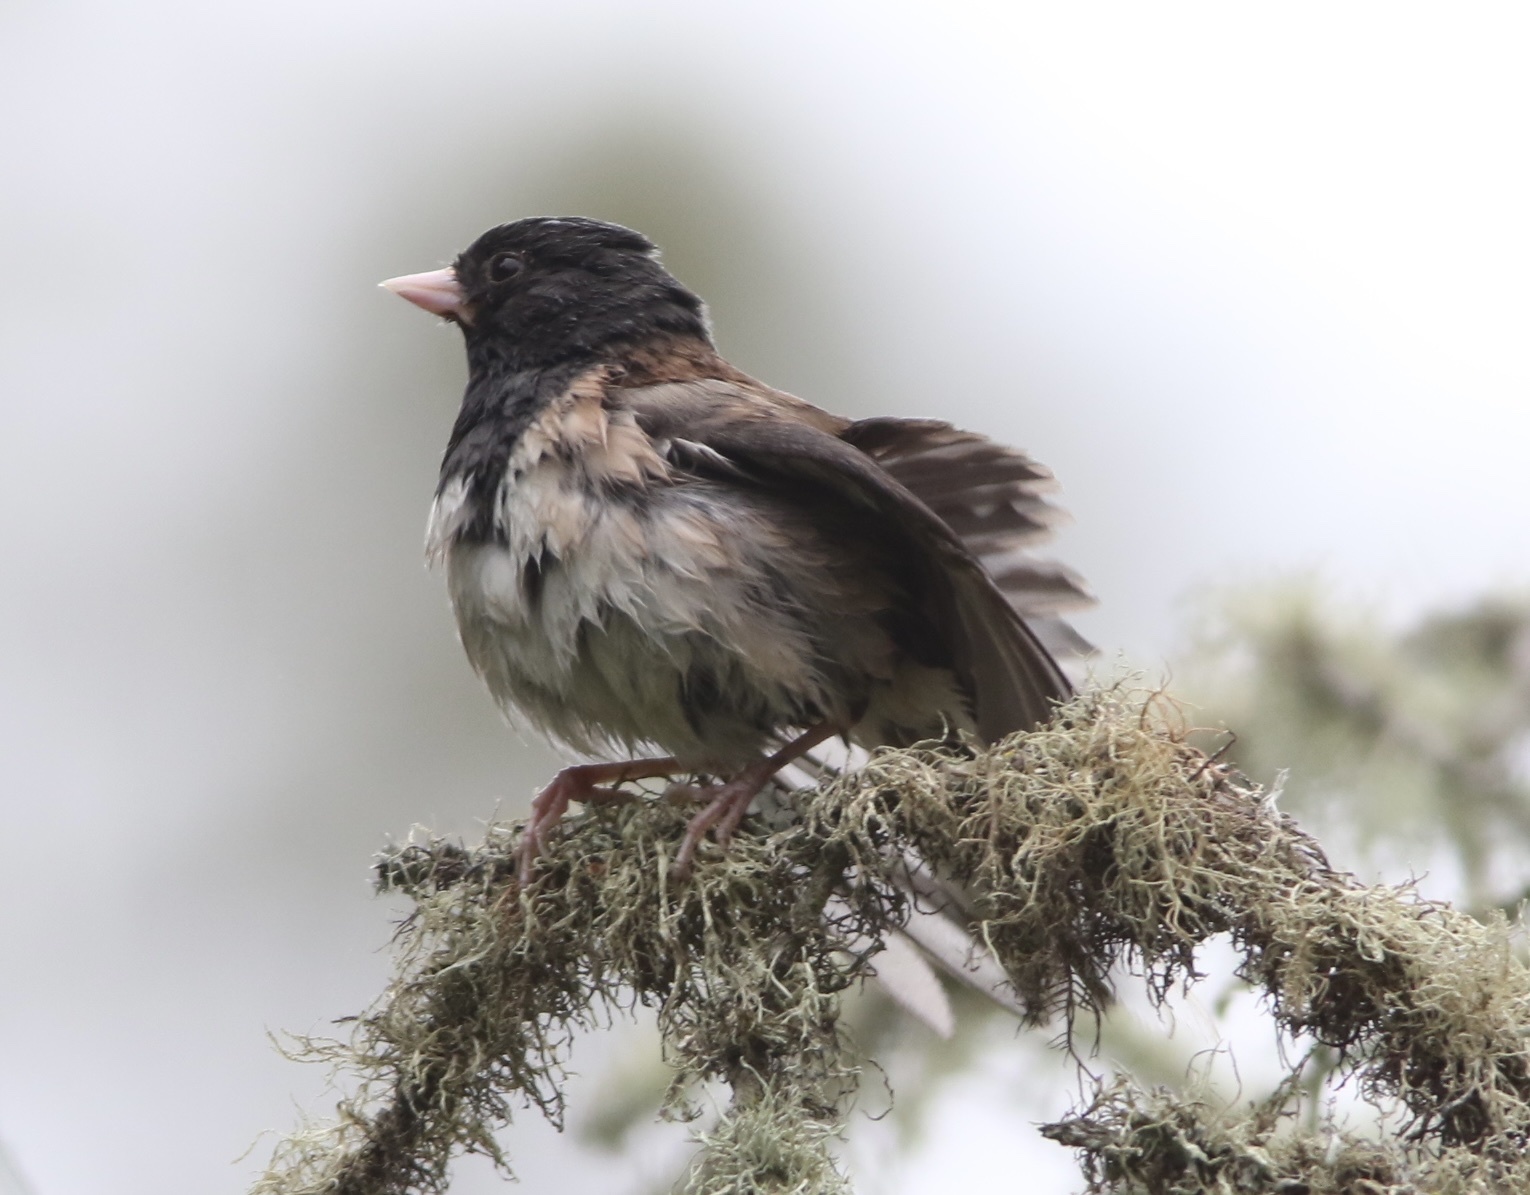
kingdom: Animalia
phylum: Chordata
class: Aves
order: Passeriformes
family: Passerellidae
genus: Junco
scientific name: Junco hyemalis
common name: Dark-eyed junco
